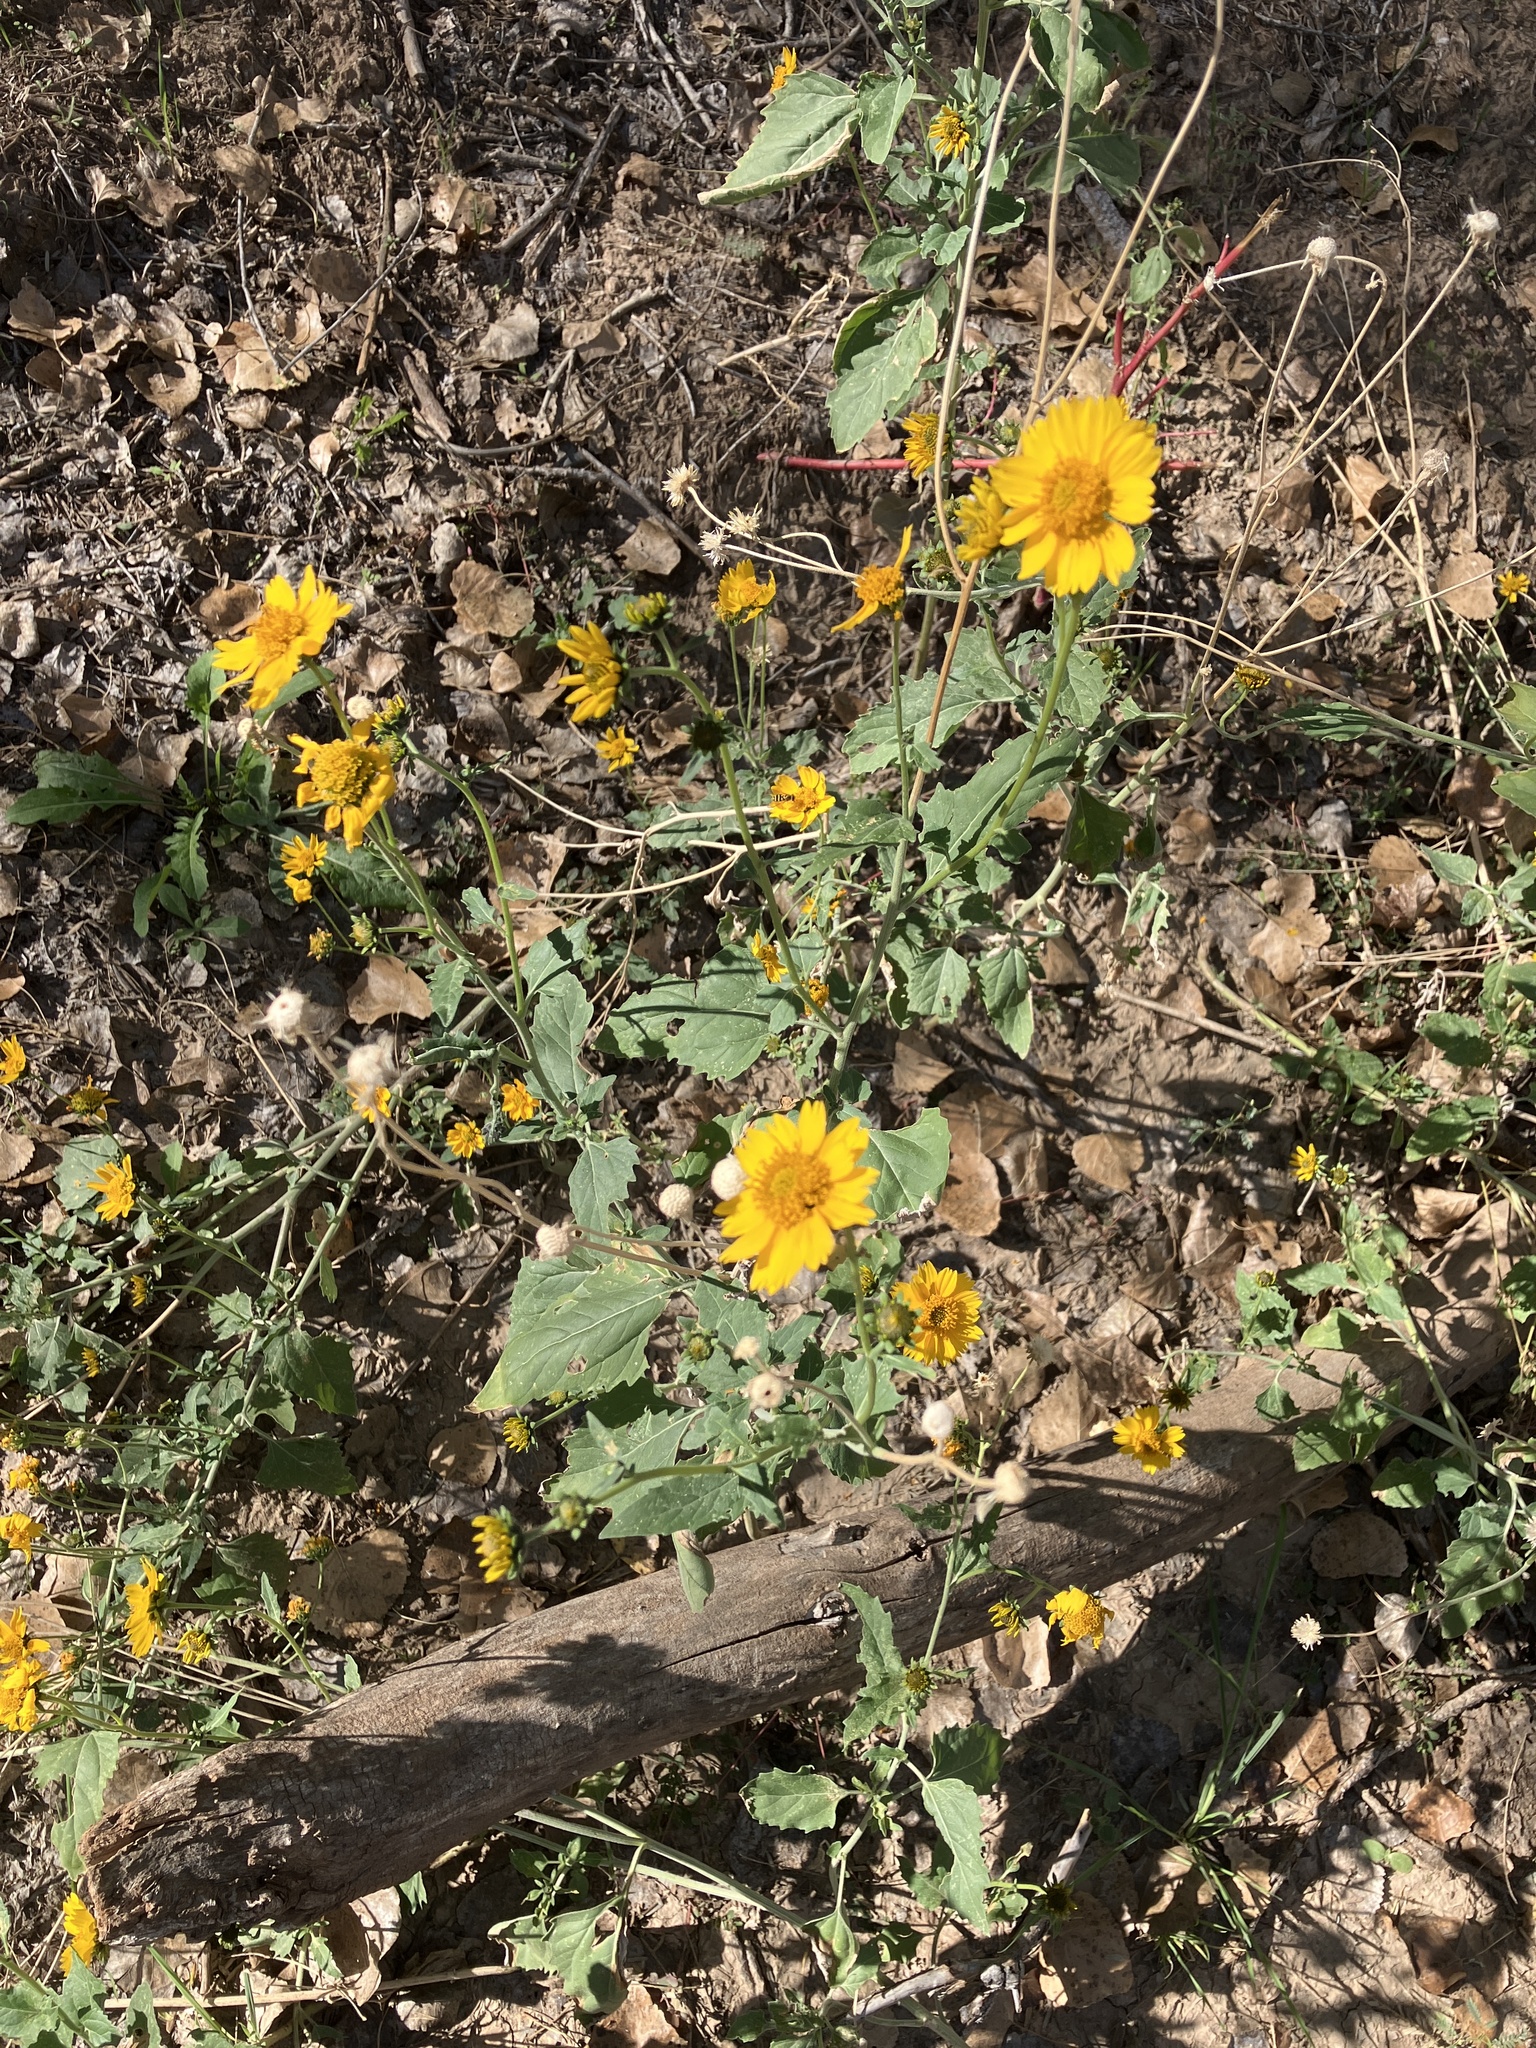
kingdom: Plantae
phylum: Tracheophyta
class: Magnoliopsida
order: Asterales
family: Asteraceae
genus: Verbesina
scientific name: Verbesina encelioides
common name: Golden crownbeard
